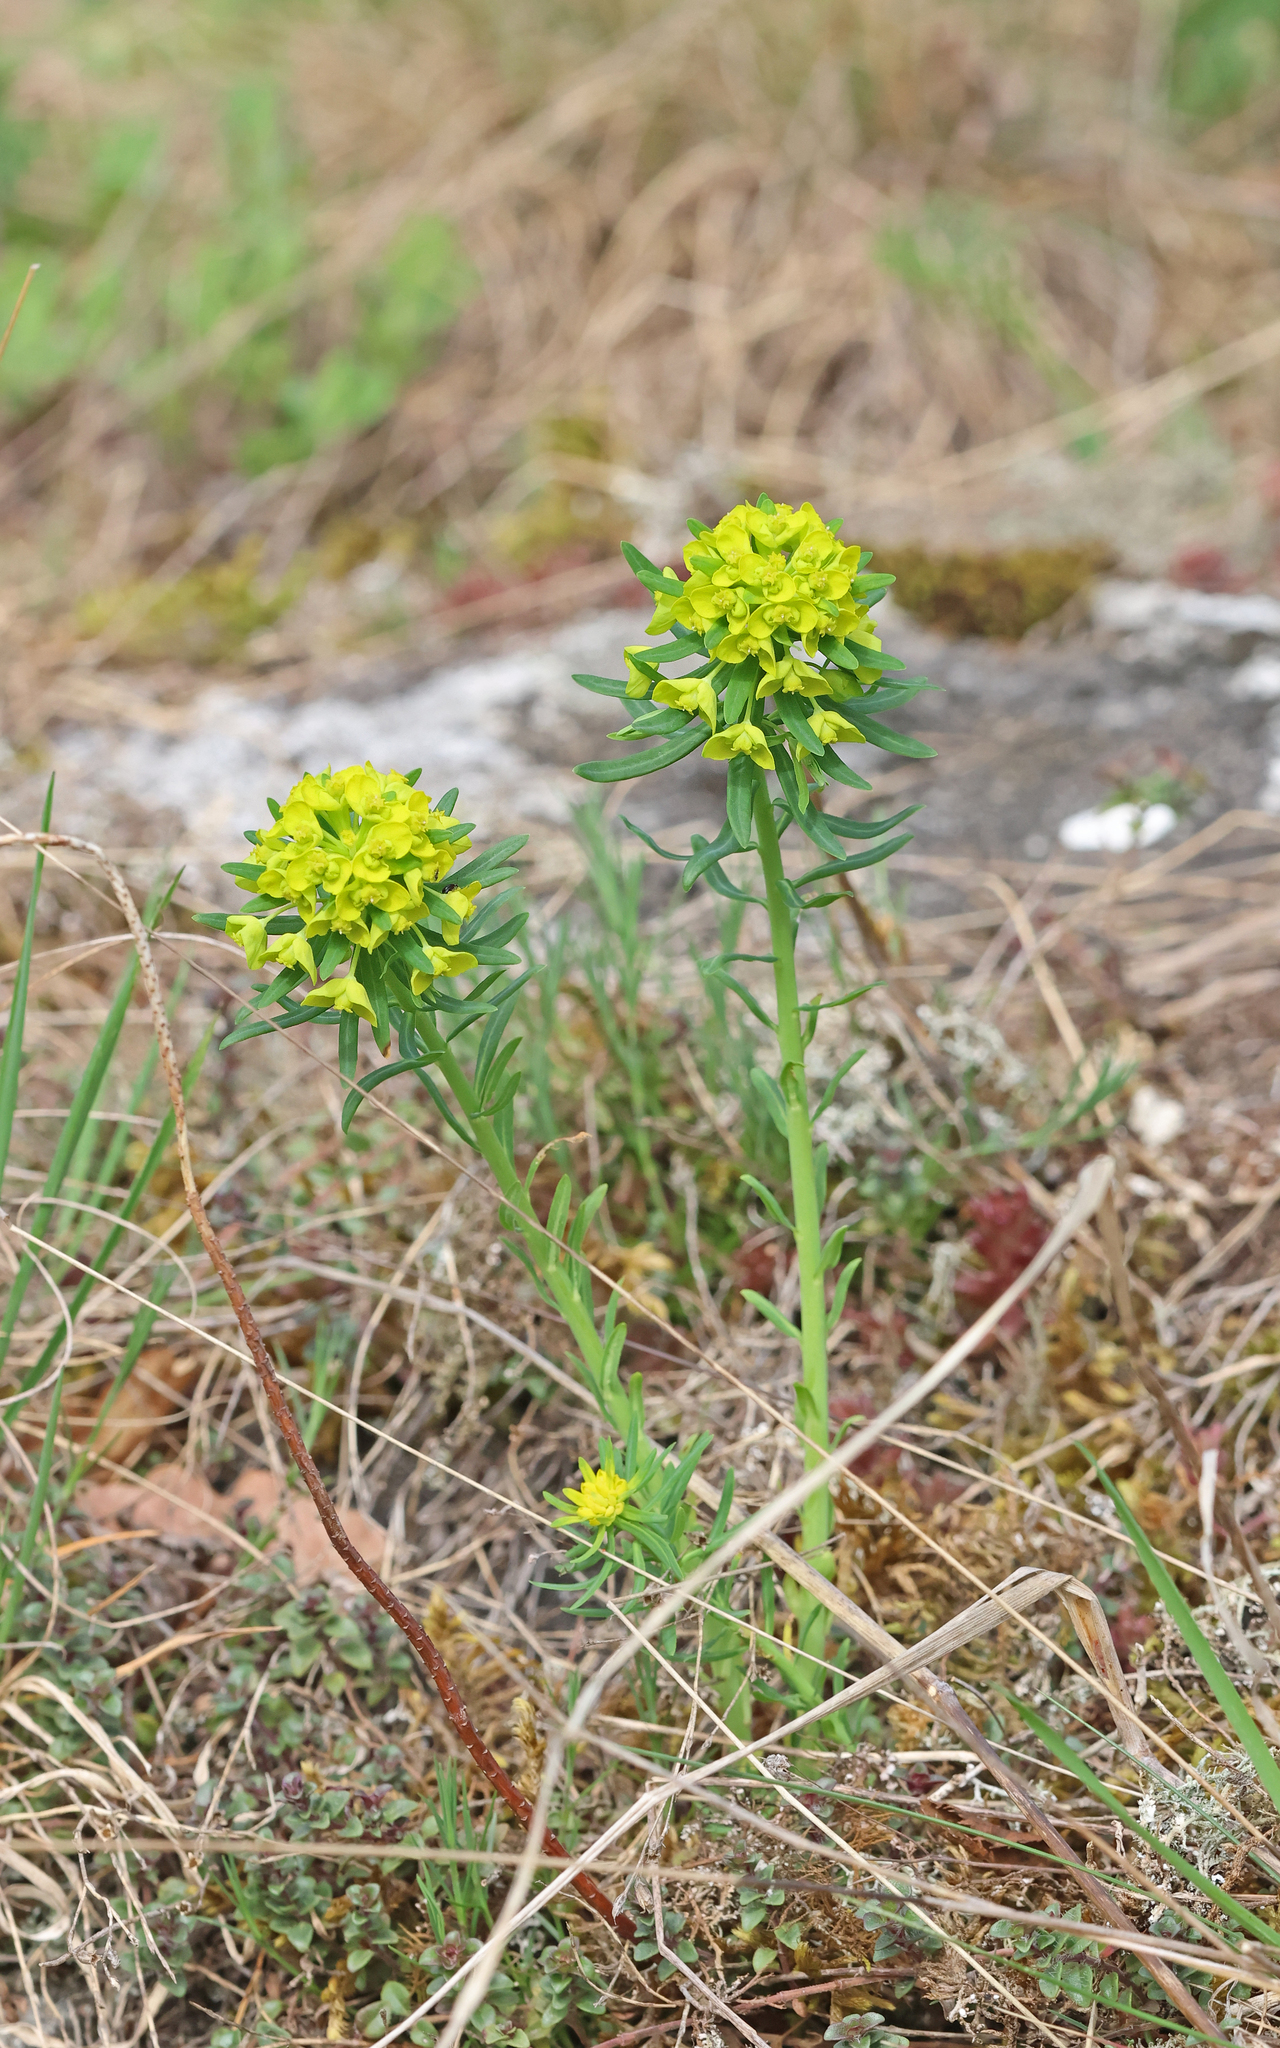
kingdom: Plantae
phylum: Tracheophyta
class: Magnoliopsida
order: Malpighiales
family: Euphorbiaceae
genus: Euphorbia
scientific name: Euphorbia cyparissias
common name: Cypress spurge
